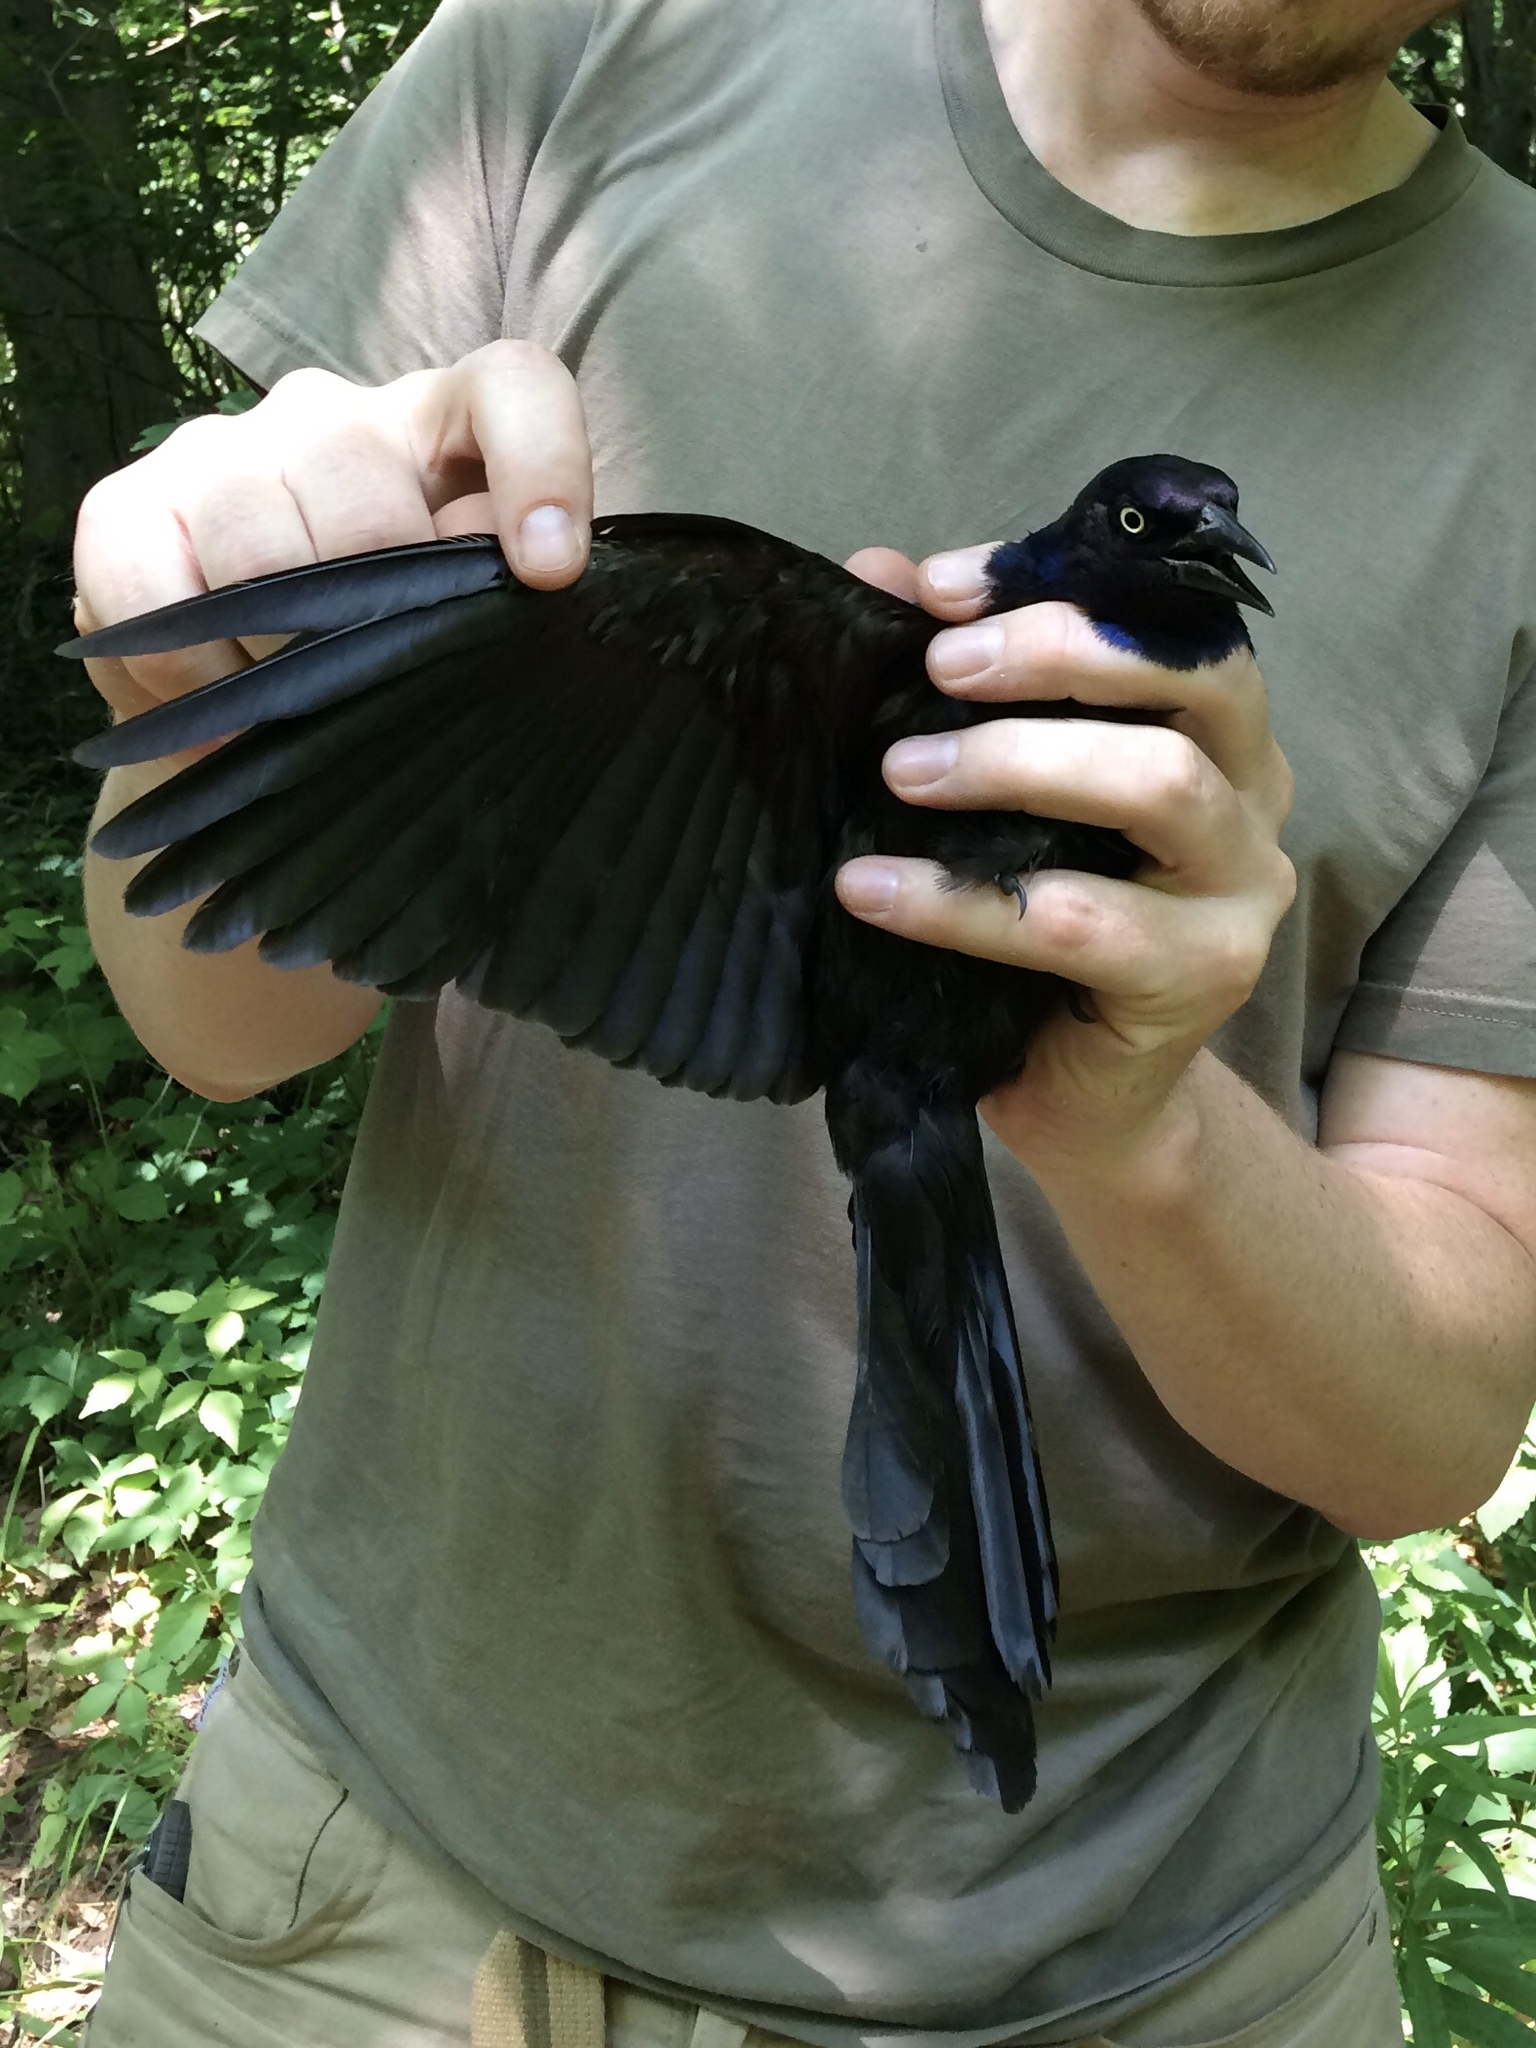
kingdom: Animalia
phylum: Chordata
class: Aves
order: Passeriformes
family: Icteridae
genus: Quiscalus
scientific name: Quiscalus quiscula
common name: Common grackle
